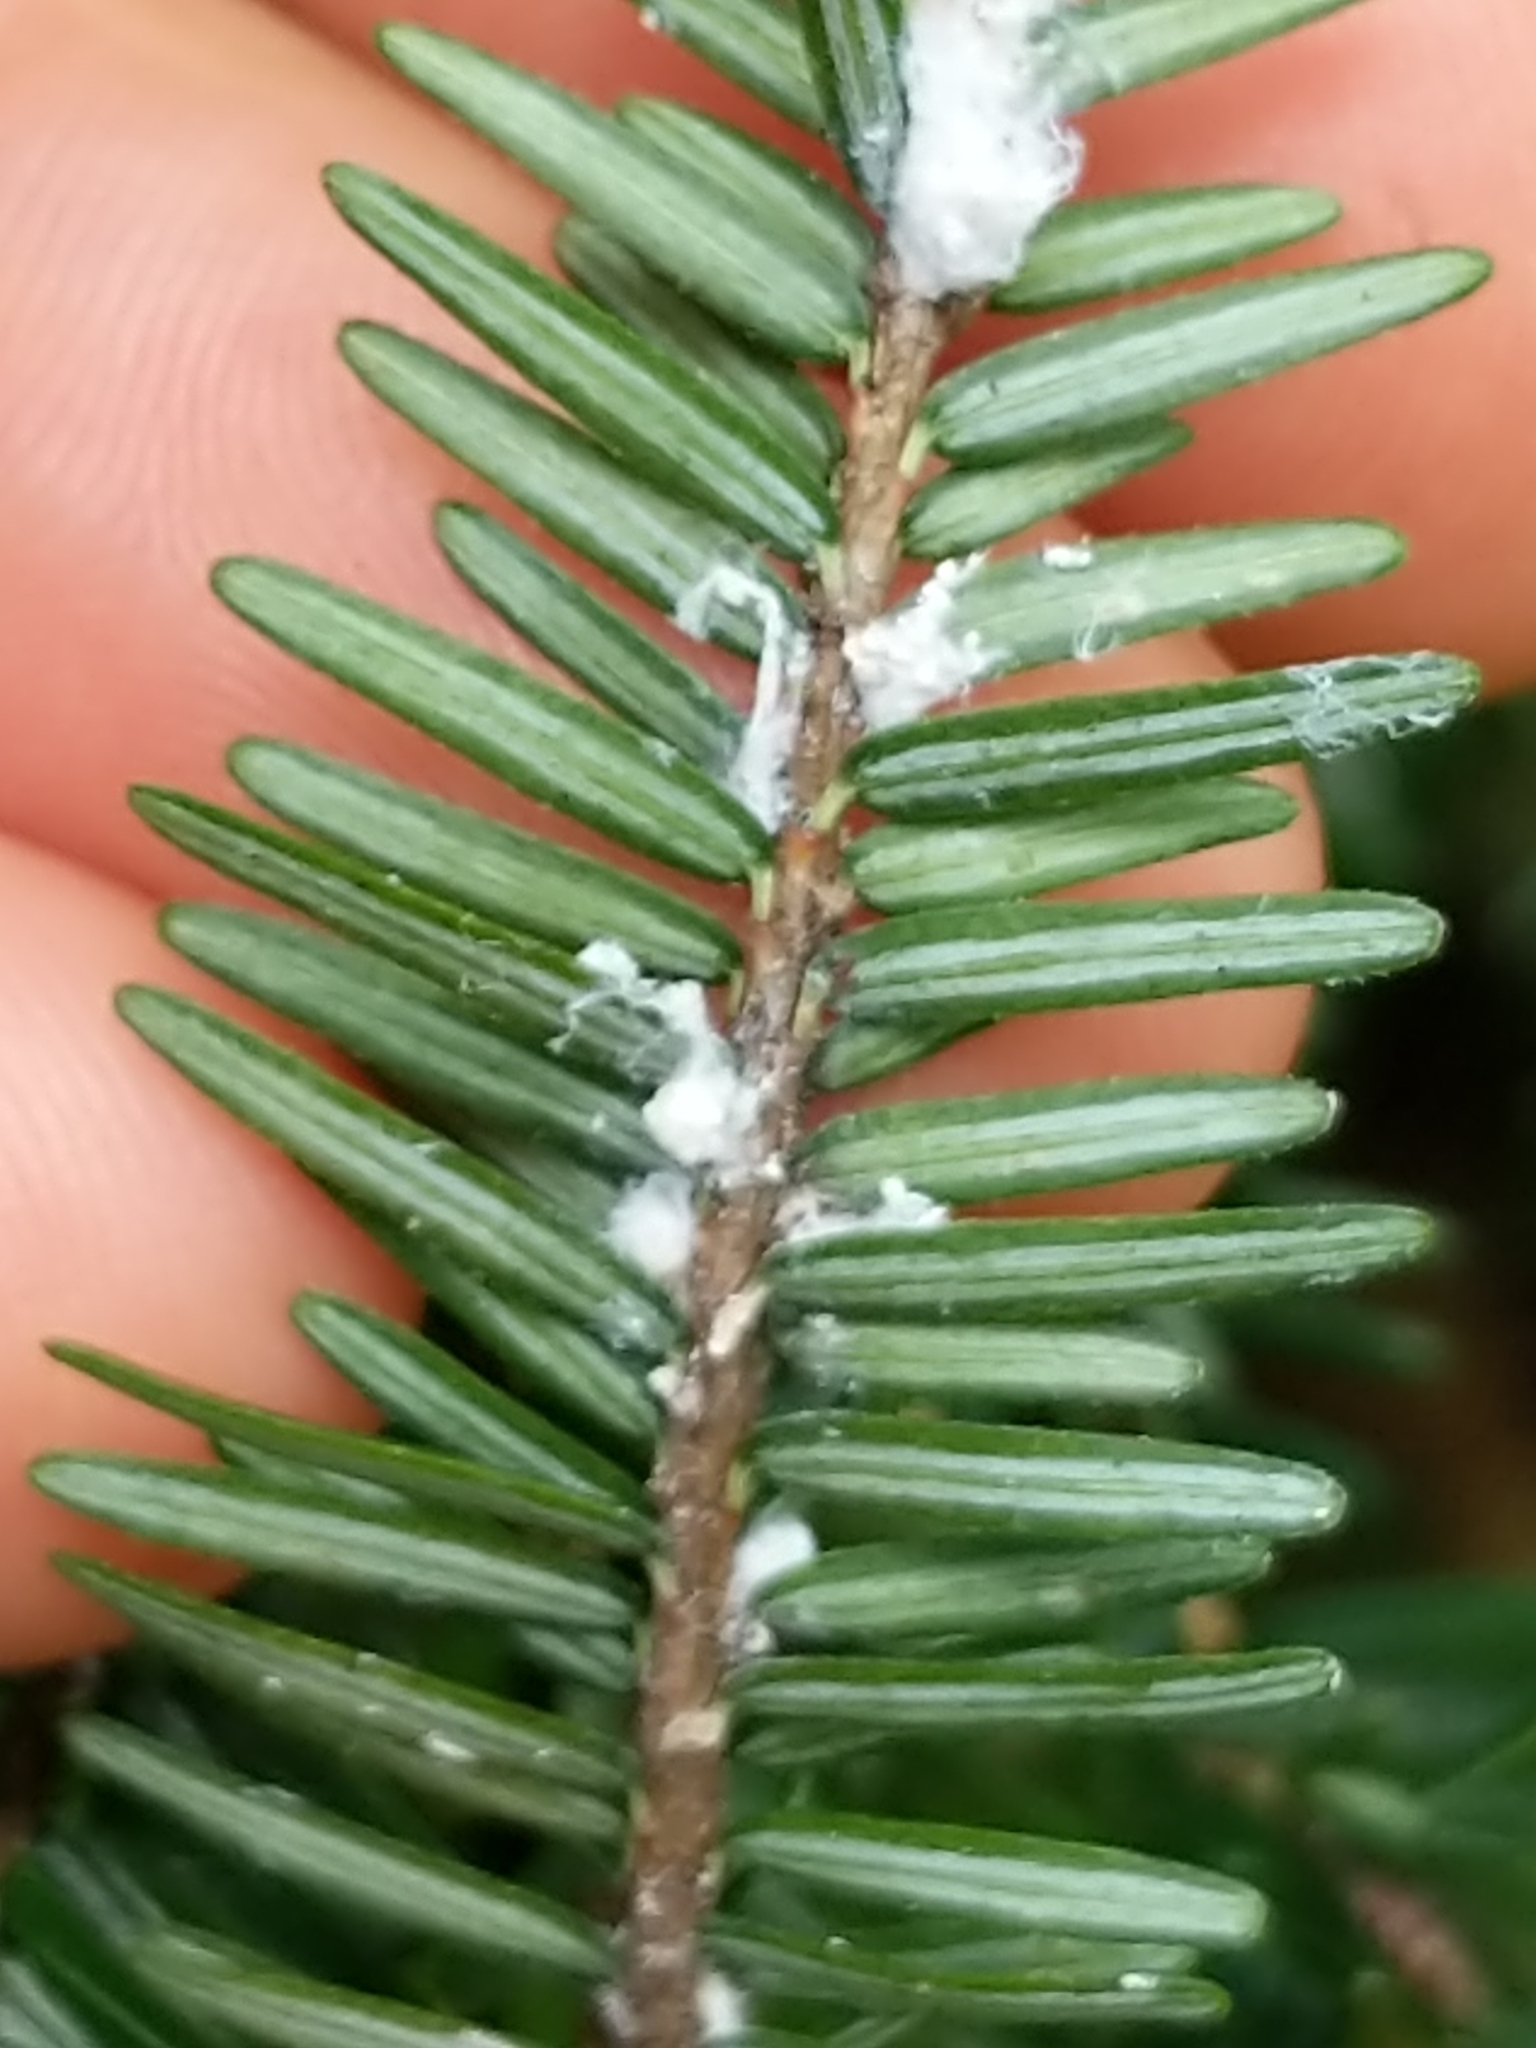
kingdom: Animalia
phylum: Arthropoda
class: Insecta
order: Hemiptera
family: Adelgidae
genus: Adelges
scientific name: Adelges tsugae
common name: Hemlock woolly adelgid
